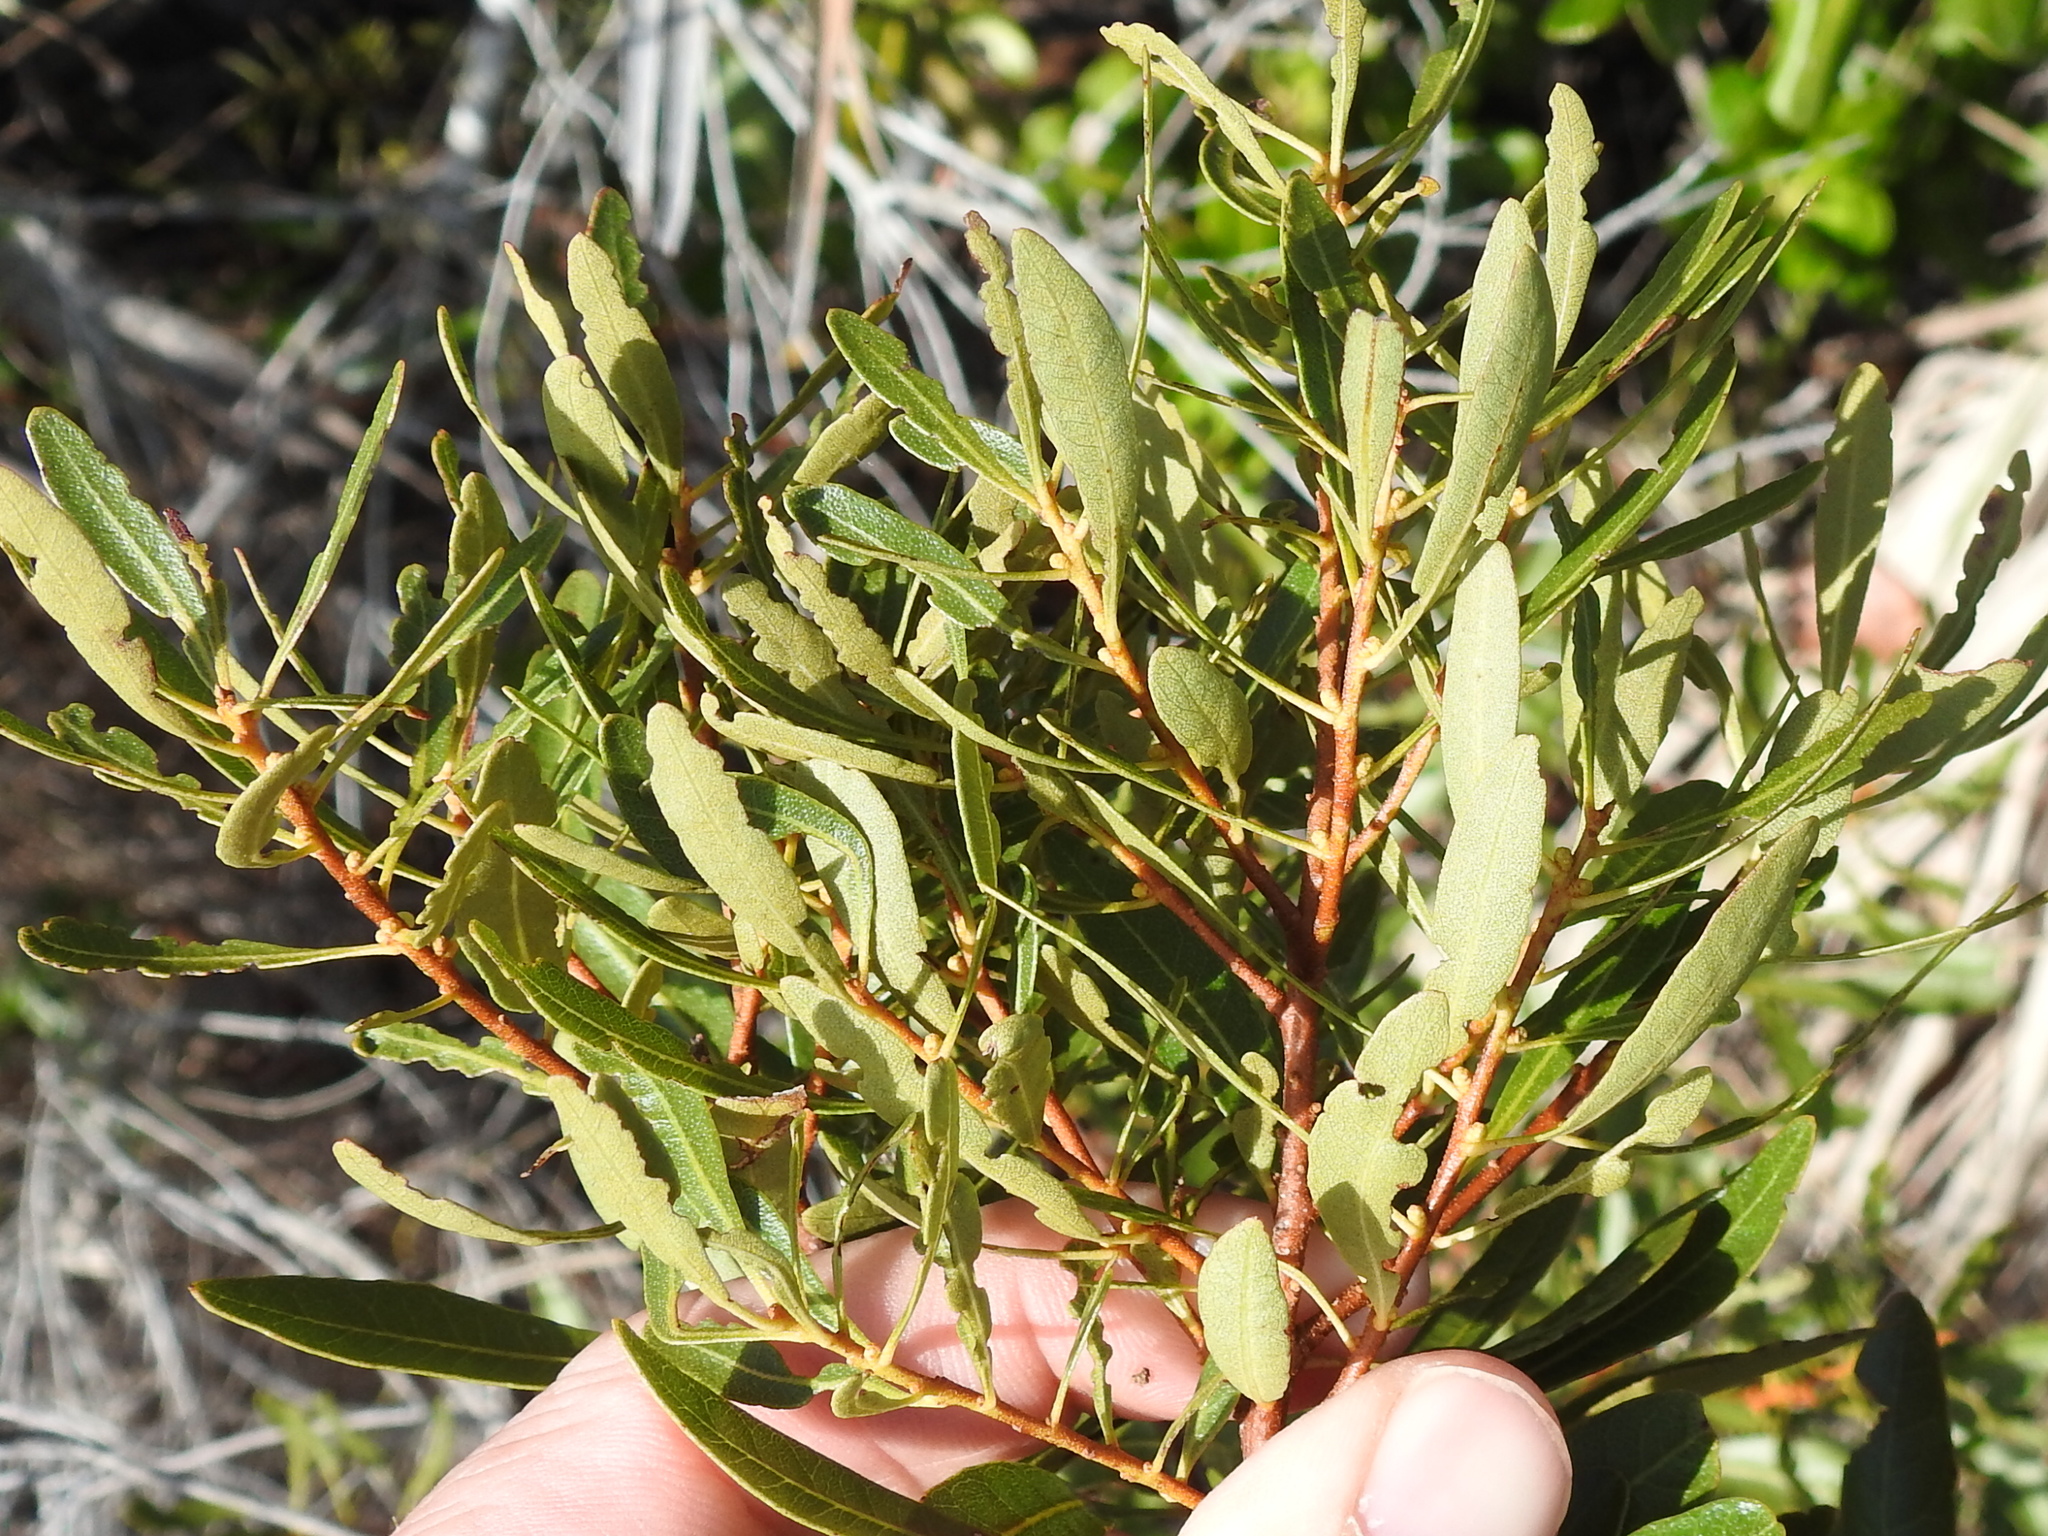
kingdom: Plantae
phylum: Tracheophyta
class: Magnoliopsida
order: Fagales
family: Myricaceae
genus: Morella
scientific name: Morella cerifera
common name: Wax myrtle
